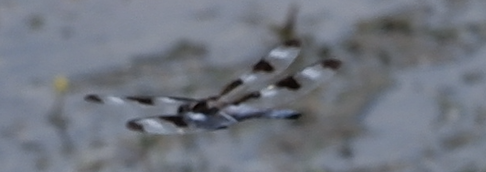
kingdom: Animalia
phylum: Arthropoda
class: Insecta
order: Odonata
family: Libellulidae
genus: Libellula
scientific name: Libellula pulchella
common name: Twelve-spotted skimmer
